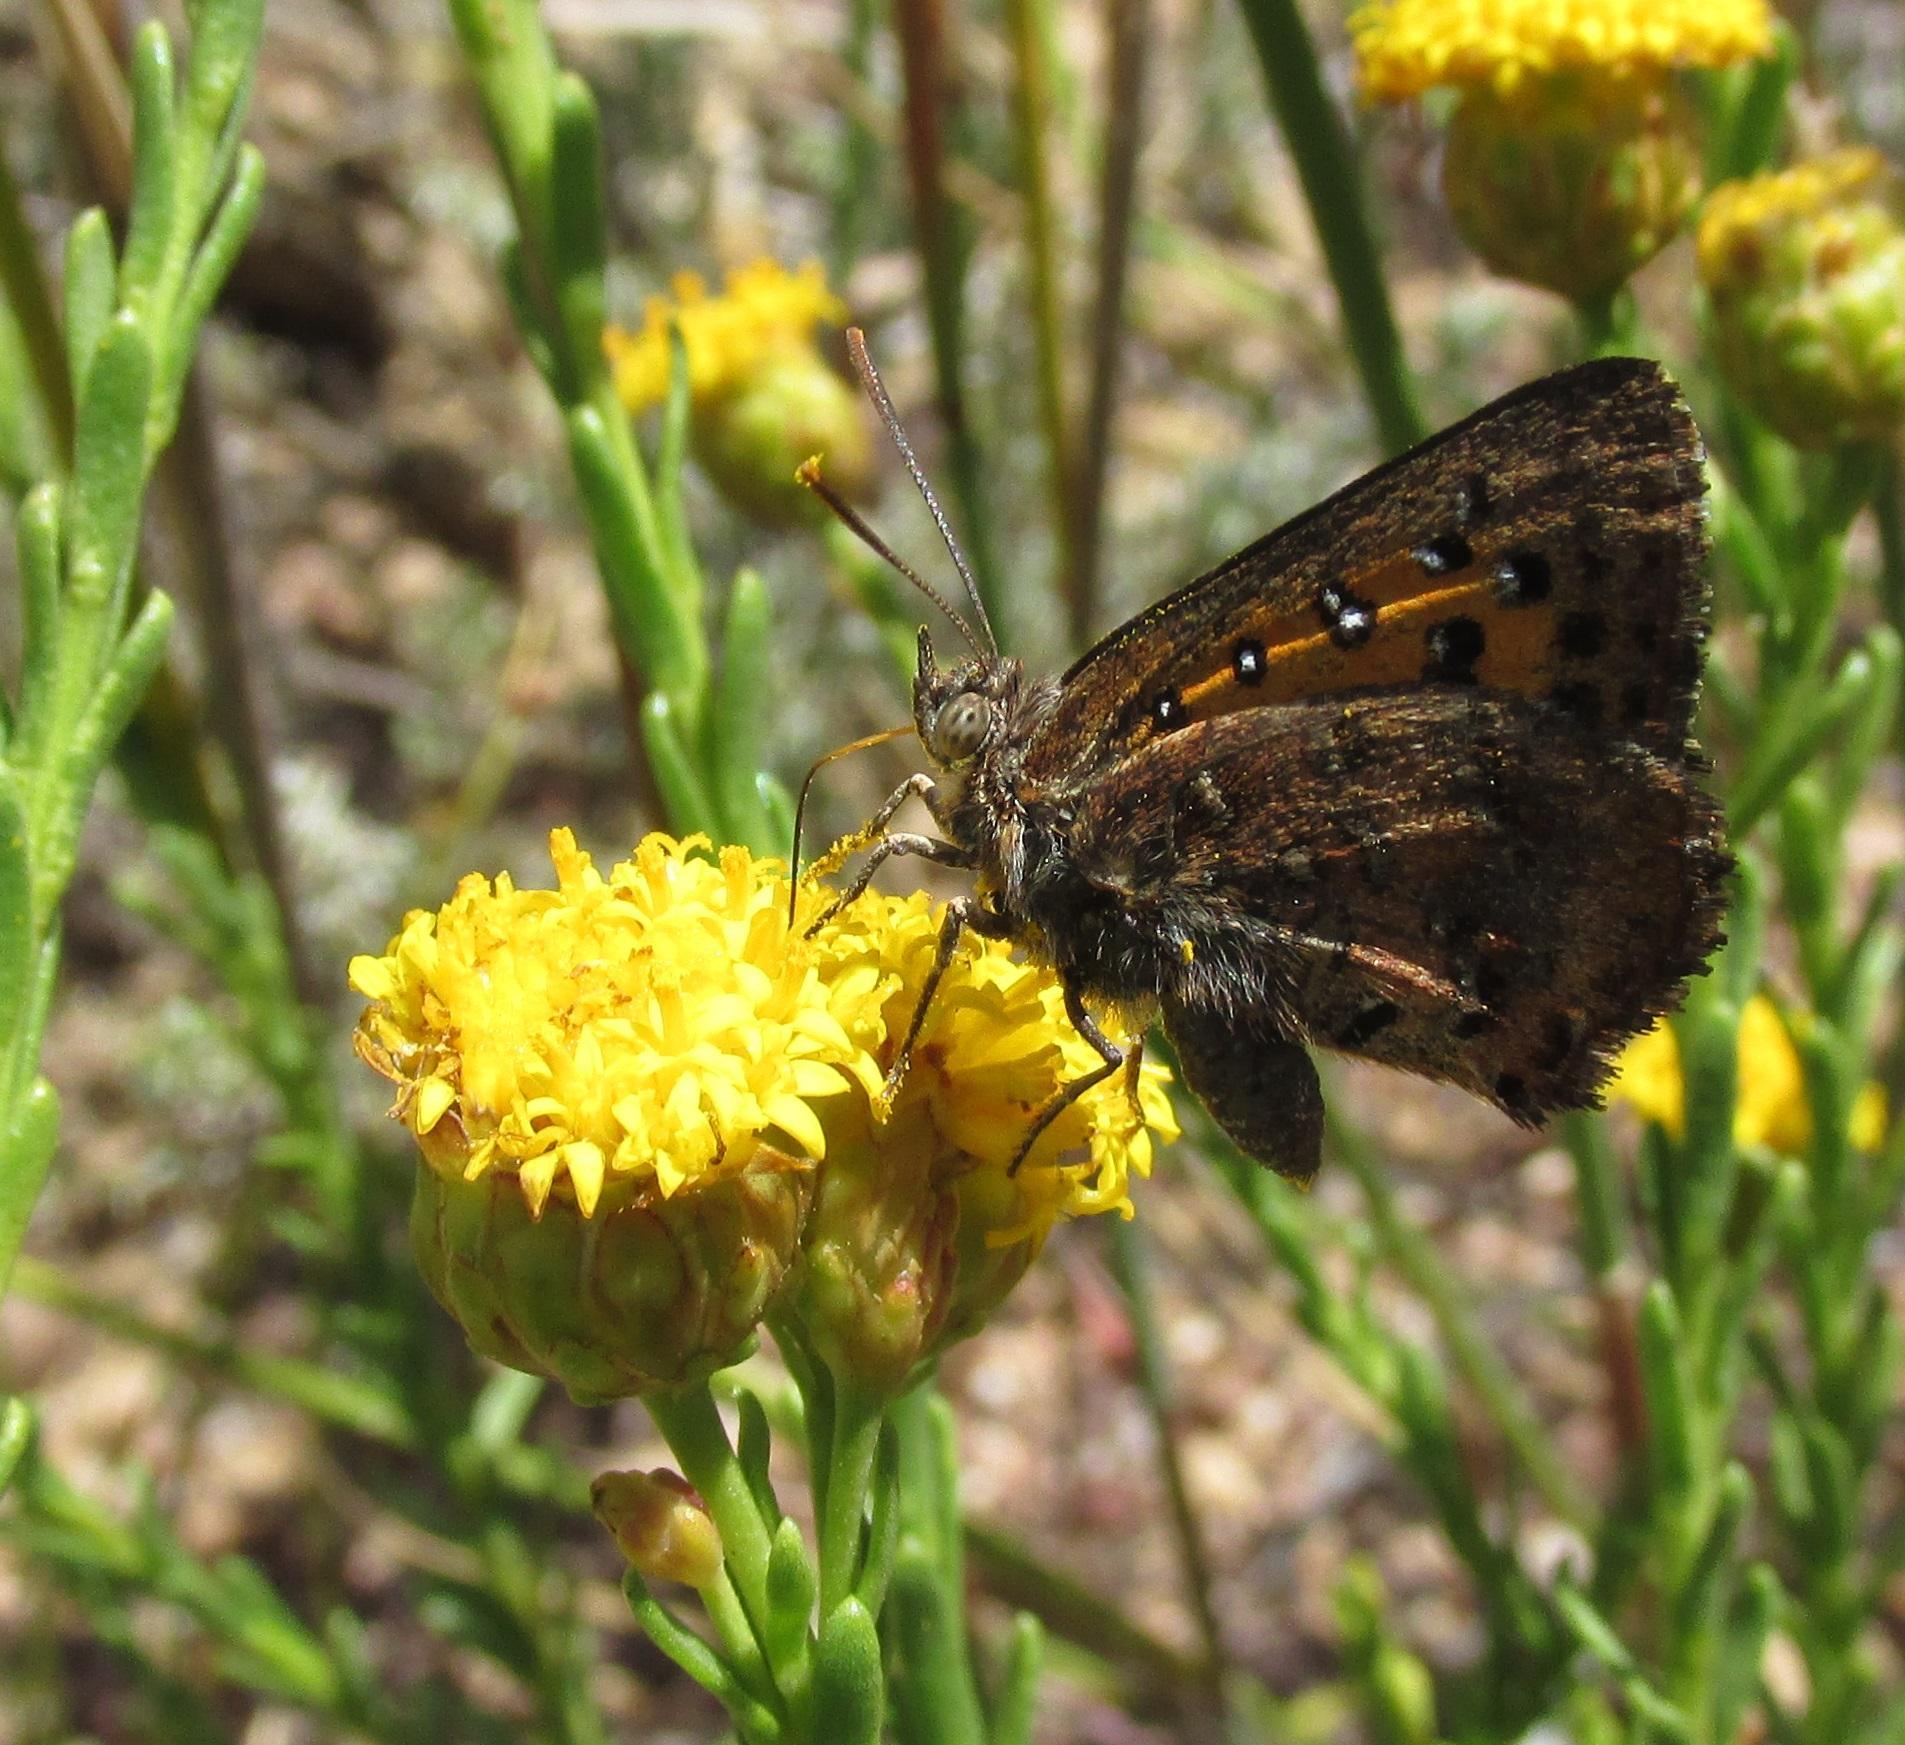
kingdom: Animalia
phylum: Arthropoda
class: Insecta
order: Lepidoptera
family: Lycaenidae
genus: Aloeides
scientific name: Aloeides pierus
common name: Dull copper
